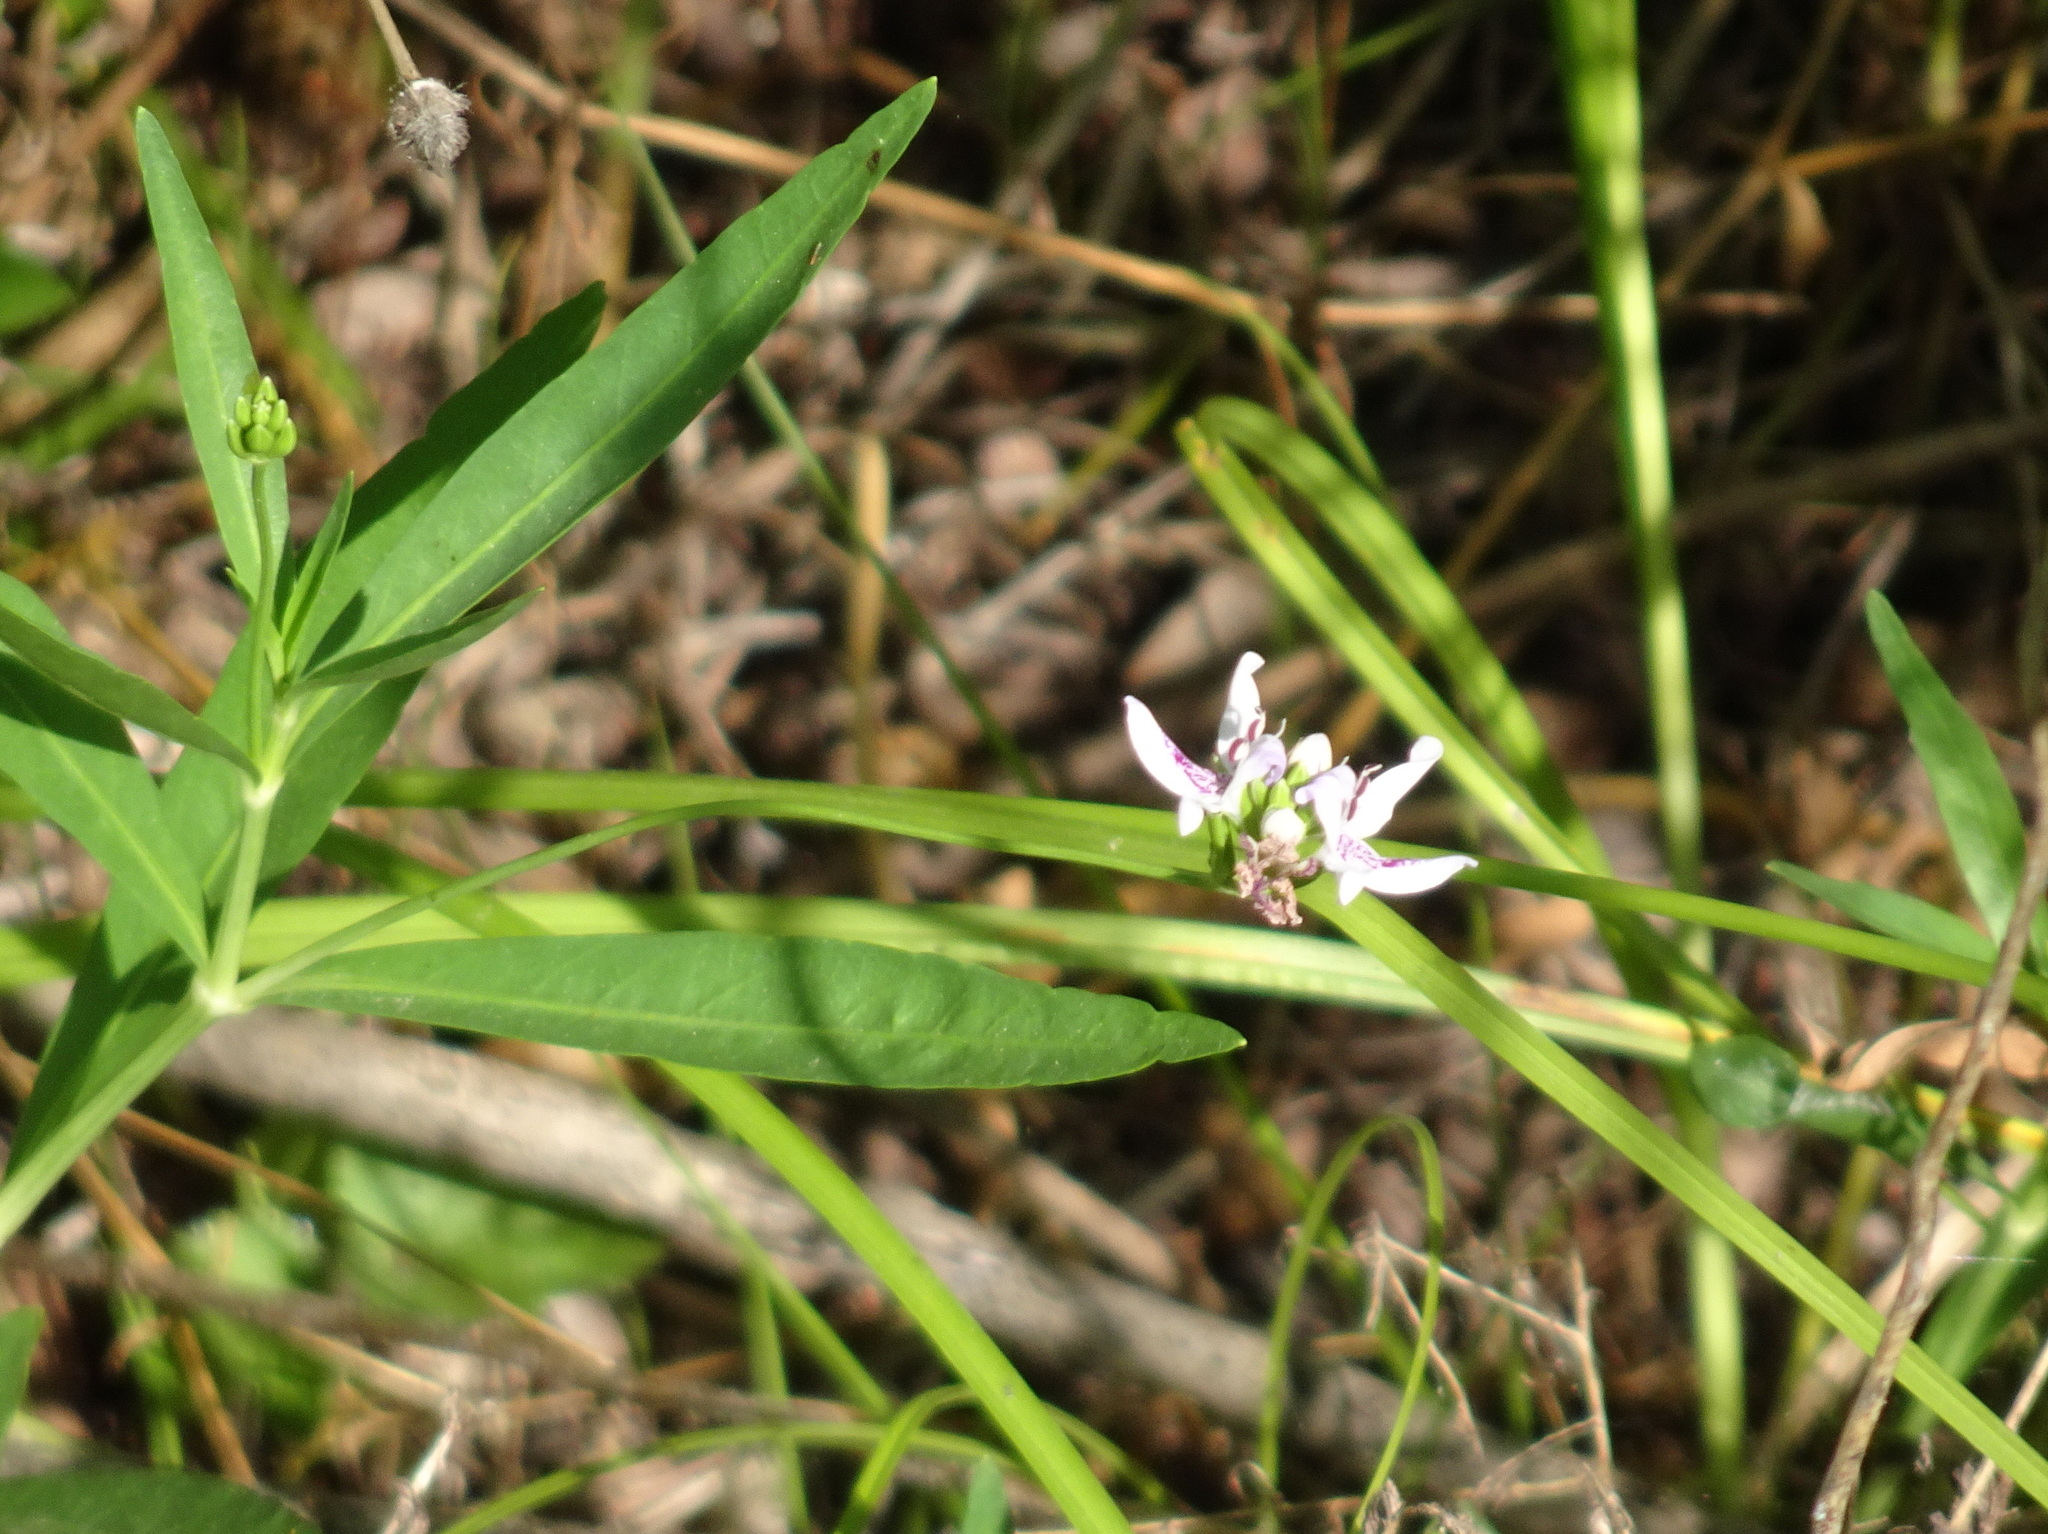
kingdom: Plantae
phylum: Tracheophyta
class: Magnoliopsida
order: Lamiales
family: Acanthaceae
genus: Dianthera
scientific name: Dianthera americana
